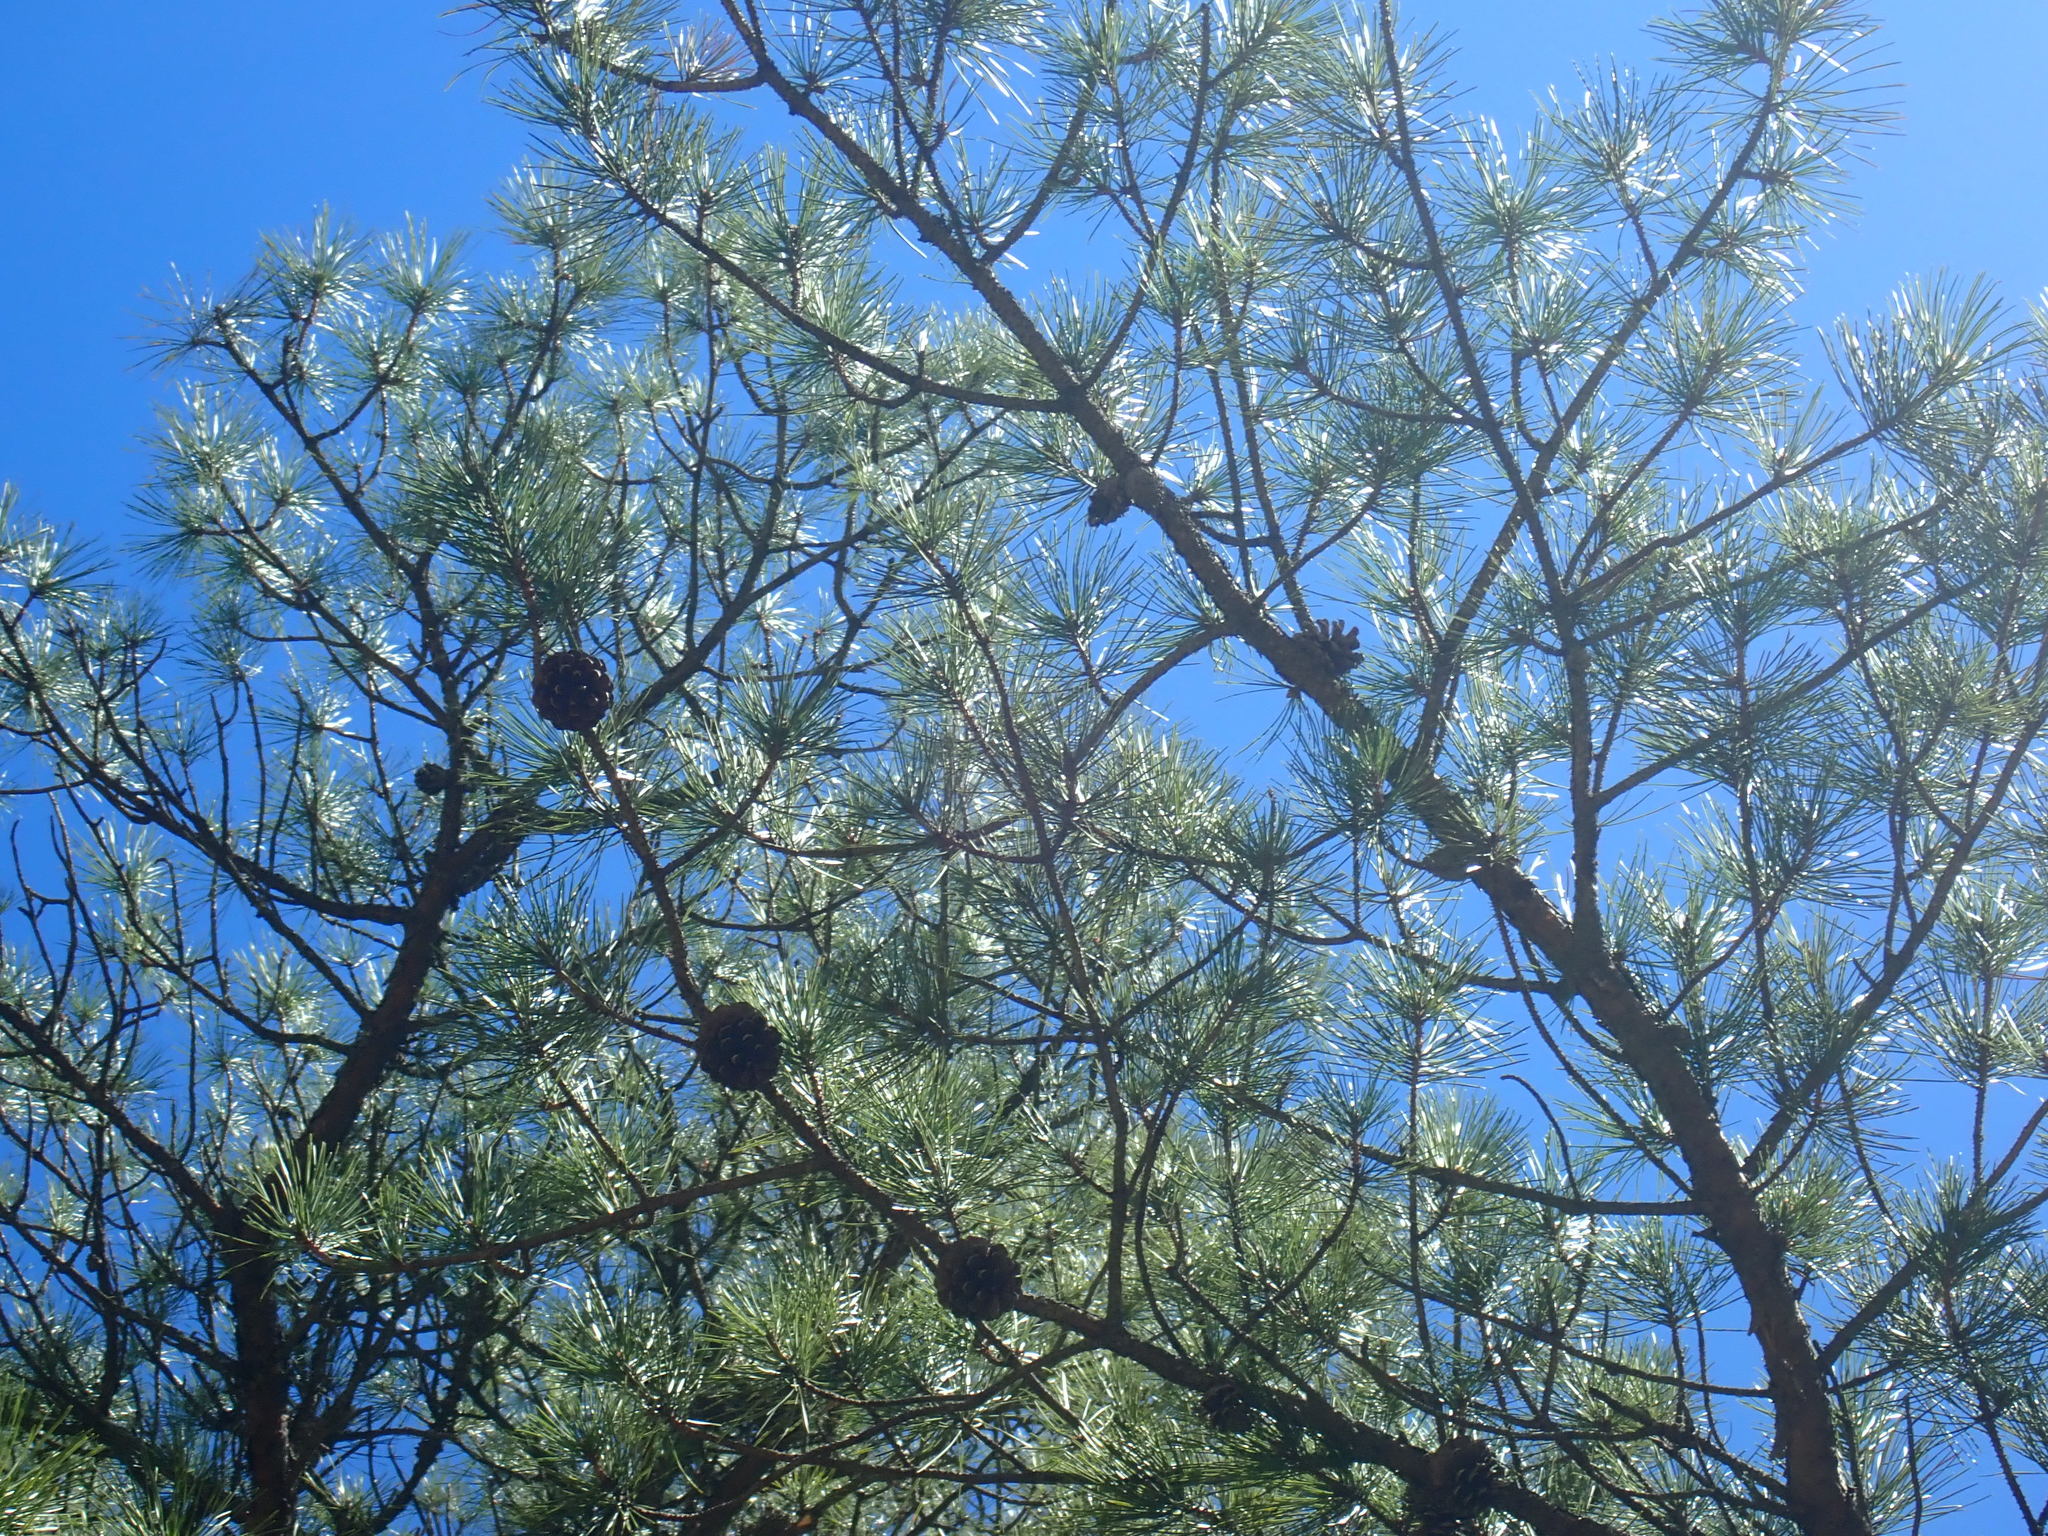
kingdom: Plantae
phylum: Tracheophyta
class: Pinopsida
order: Pinales
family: Pinaceae
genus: Pinus
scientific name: Pinus rigida
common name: Pitch pine
